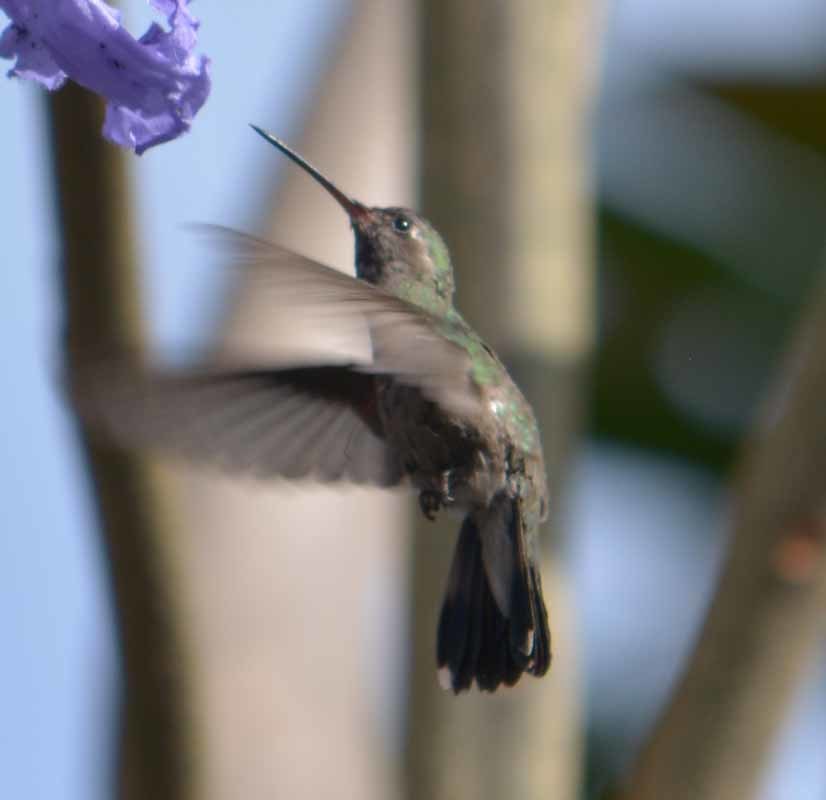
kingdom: Animalia
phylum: Chordata
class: Aves
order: Apodiformes
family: Trochilidae
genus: Cynanthus
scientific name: Cynanthus latirostris
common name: Broad-billed hummingbird
